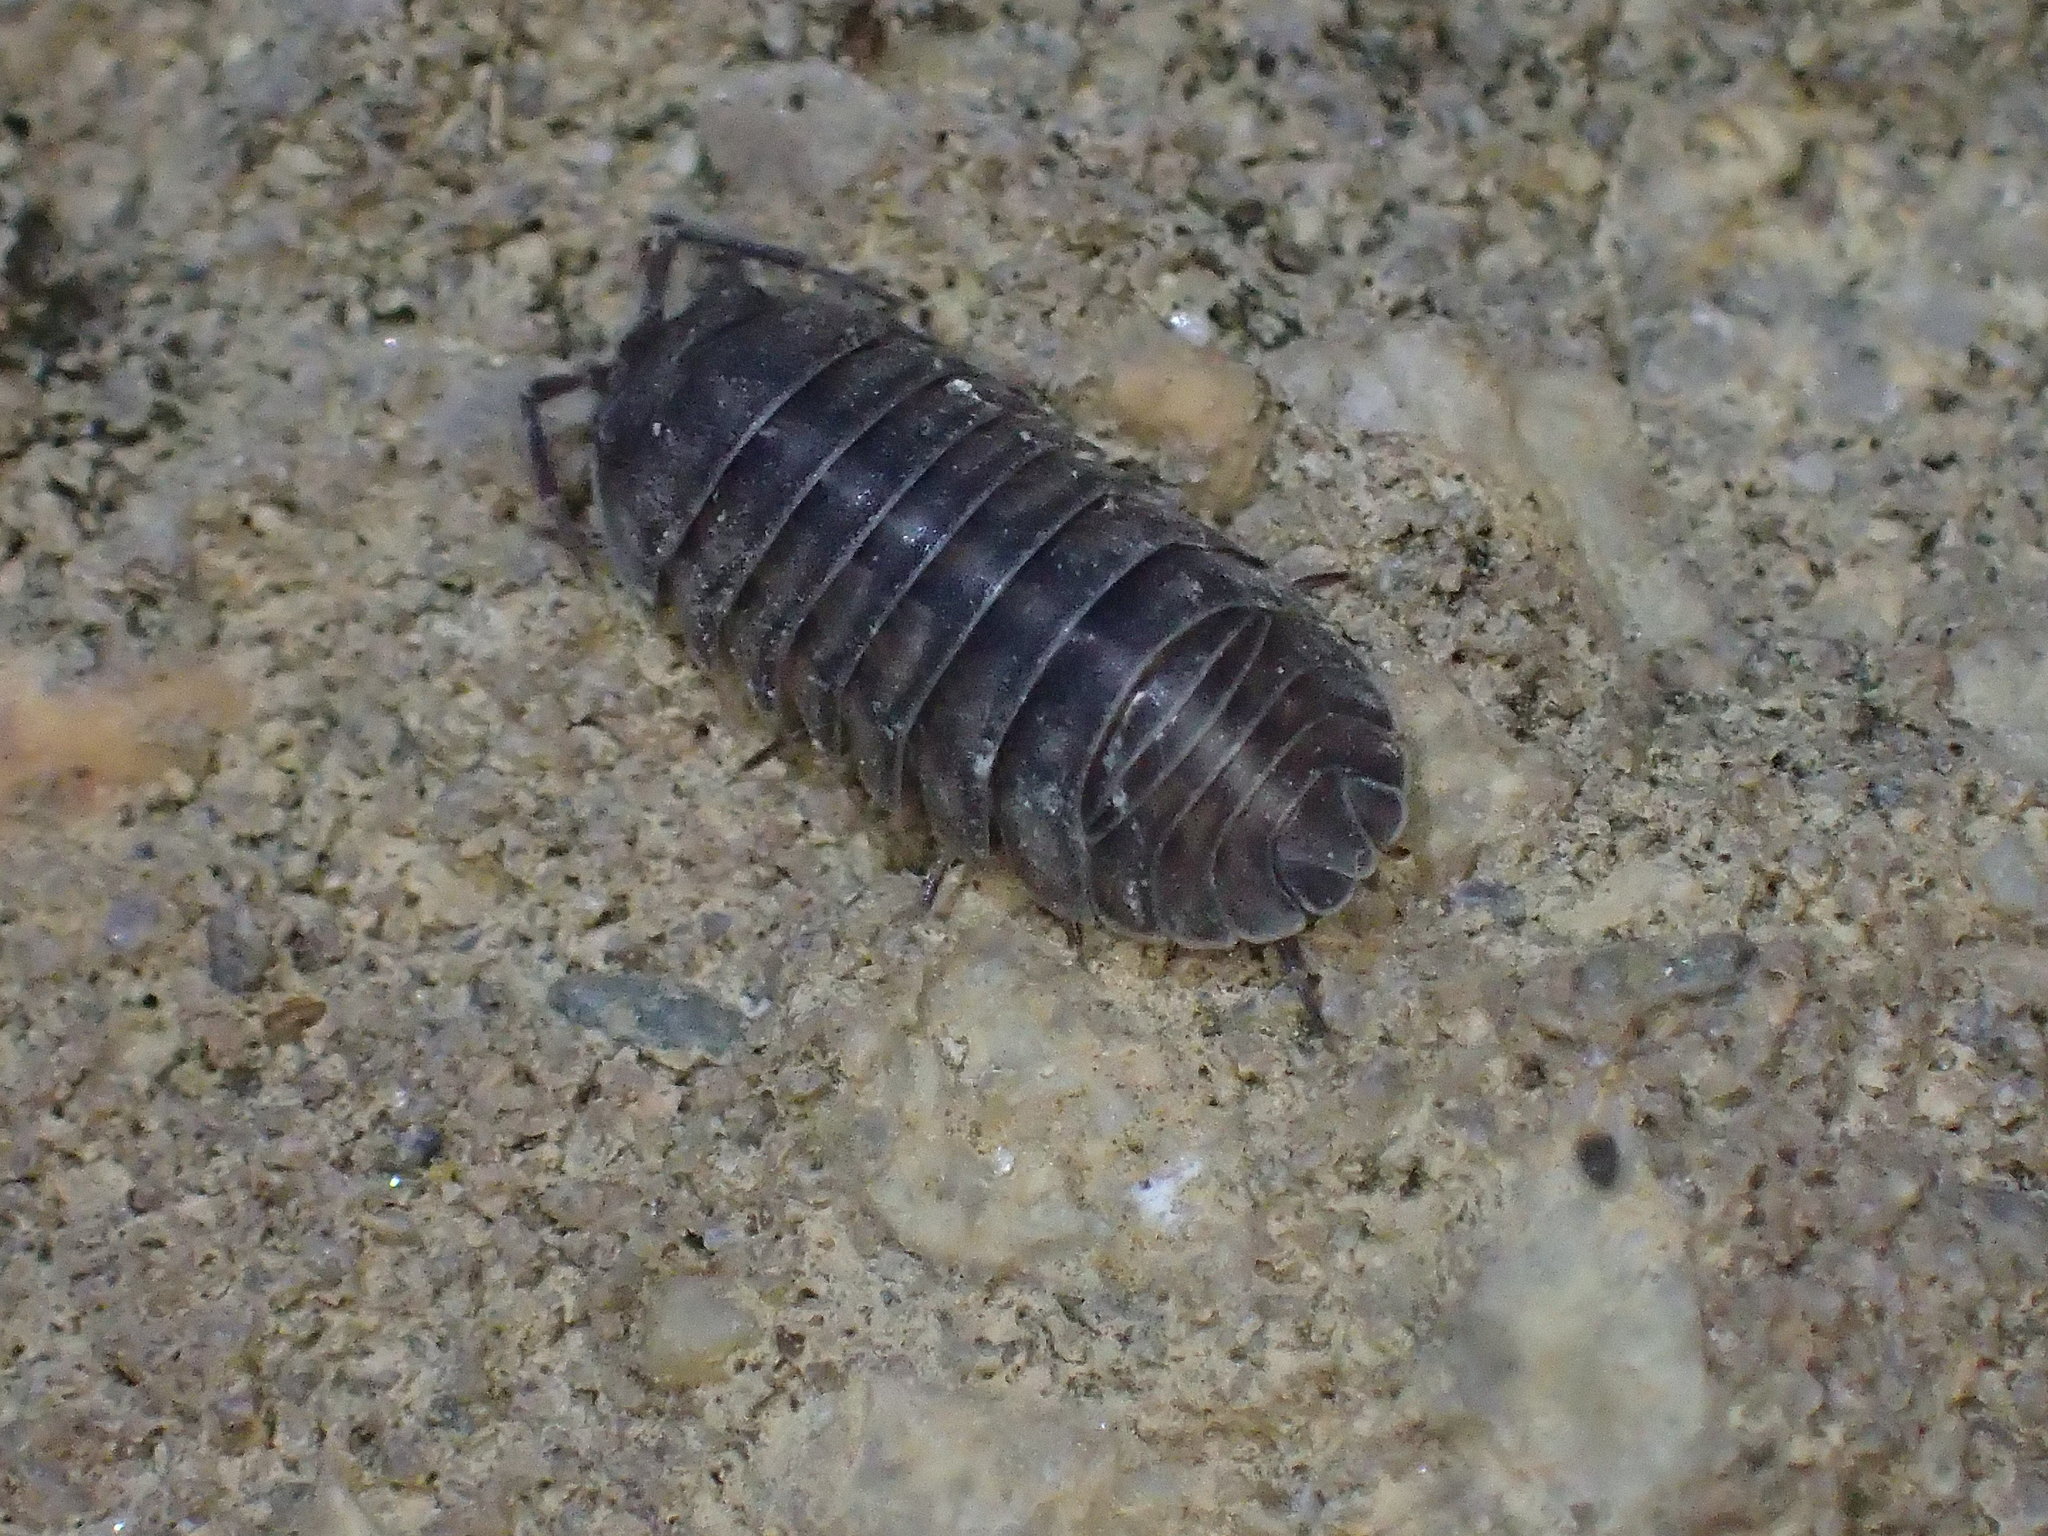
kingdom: Animalia
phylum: Arthropoda
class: Malacostraca
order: Isopoda
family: Armadillidiidae
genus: Armadillidium
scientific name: Armadillidium nasatum
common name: Isopod
